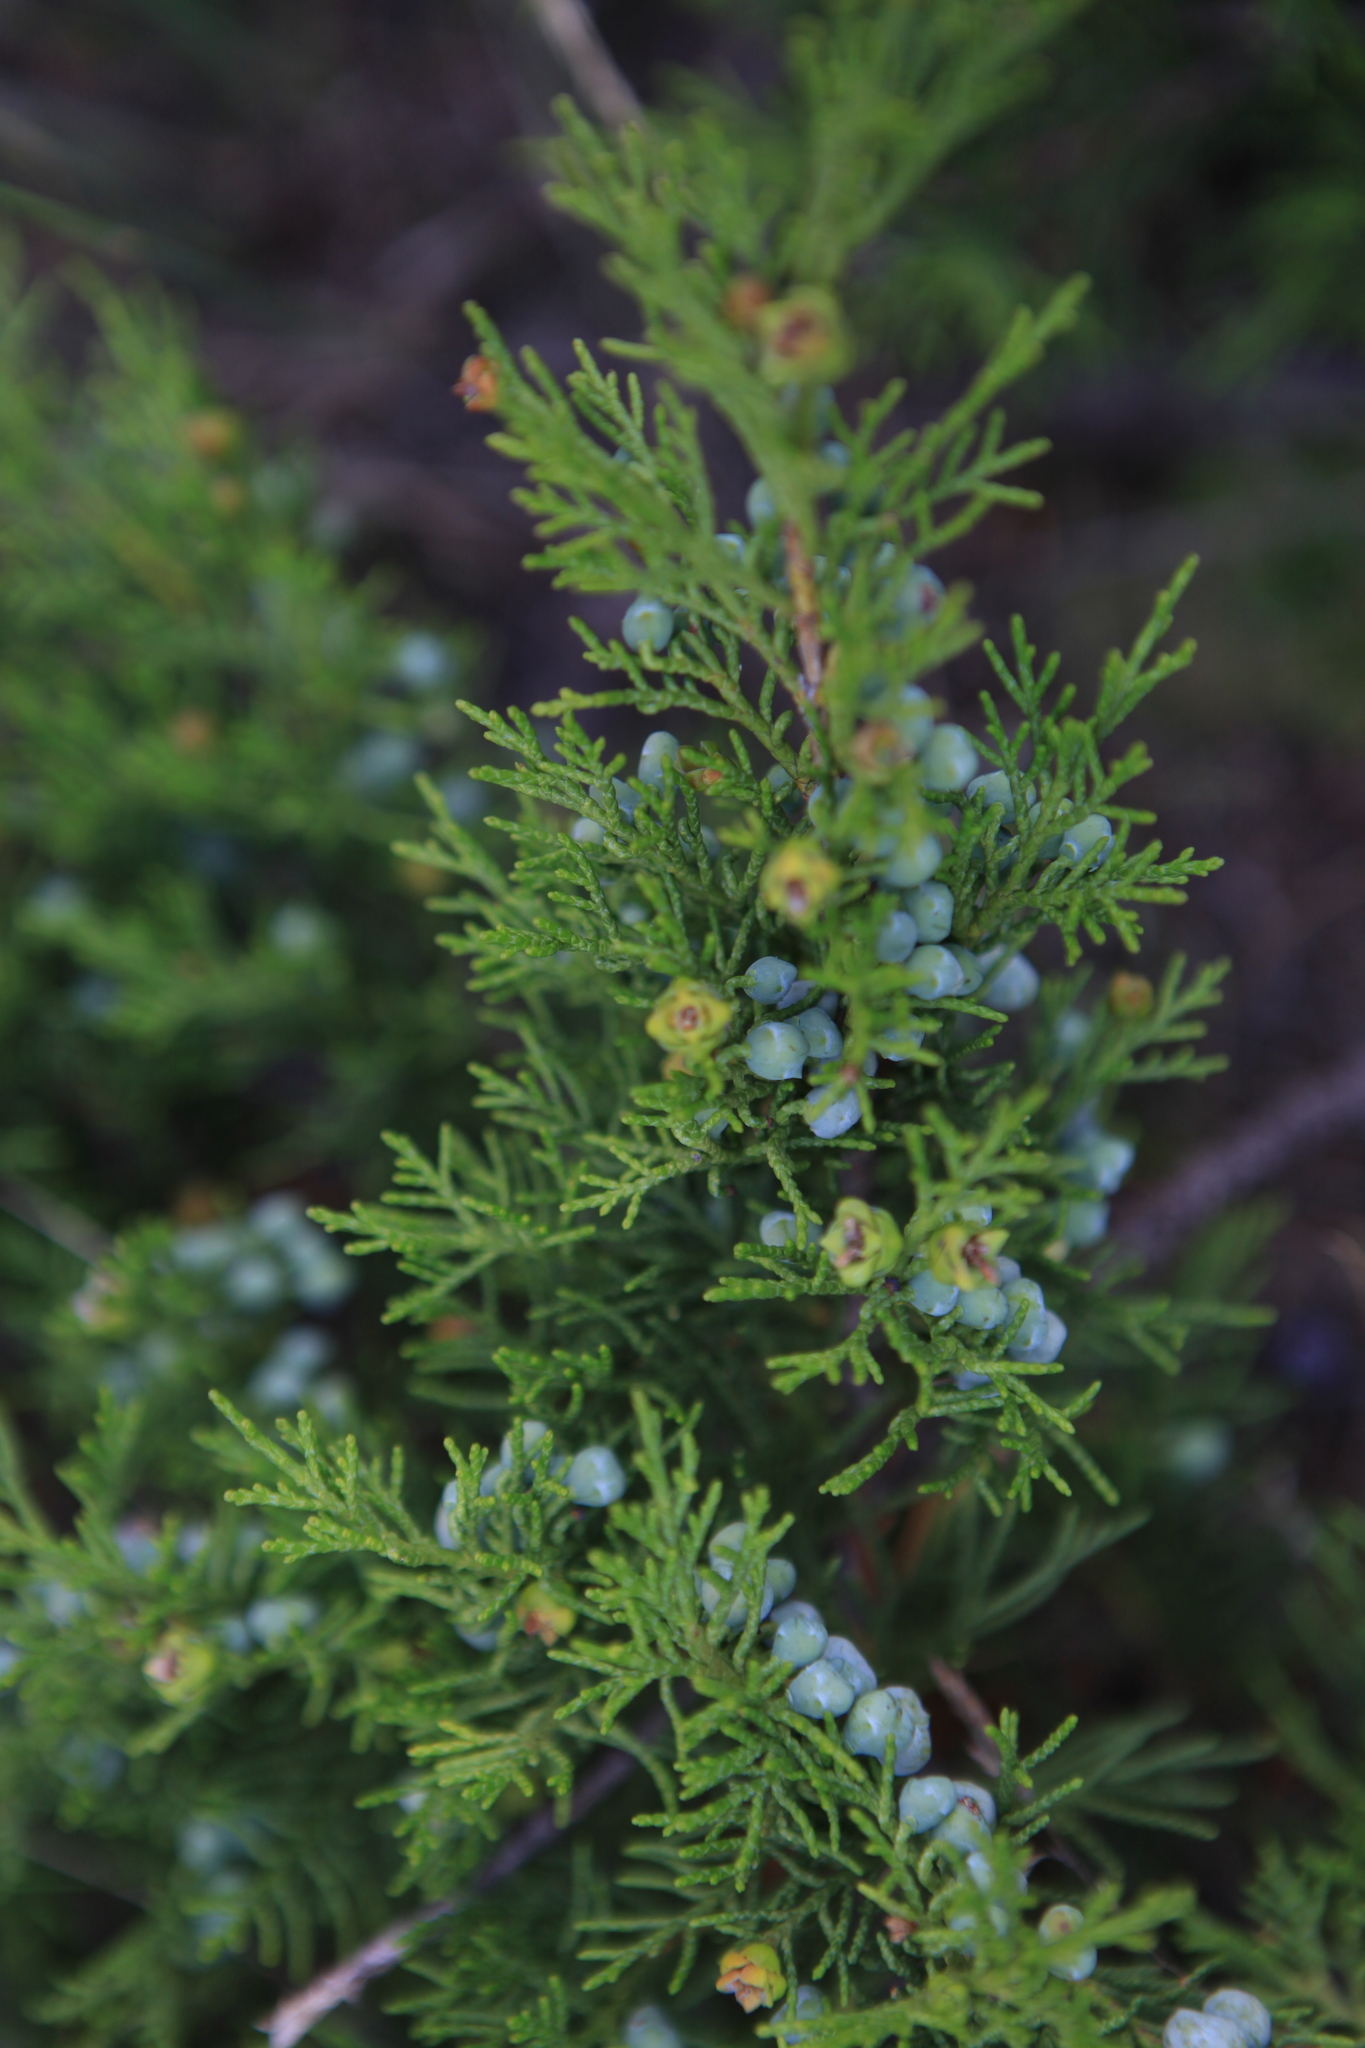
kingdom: Plantae
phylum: Tracheophyta
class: Pinopsida
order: Pinales
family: Cupressaceae
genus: Juniperus
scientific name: Juniperus sabina
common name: Savin
